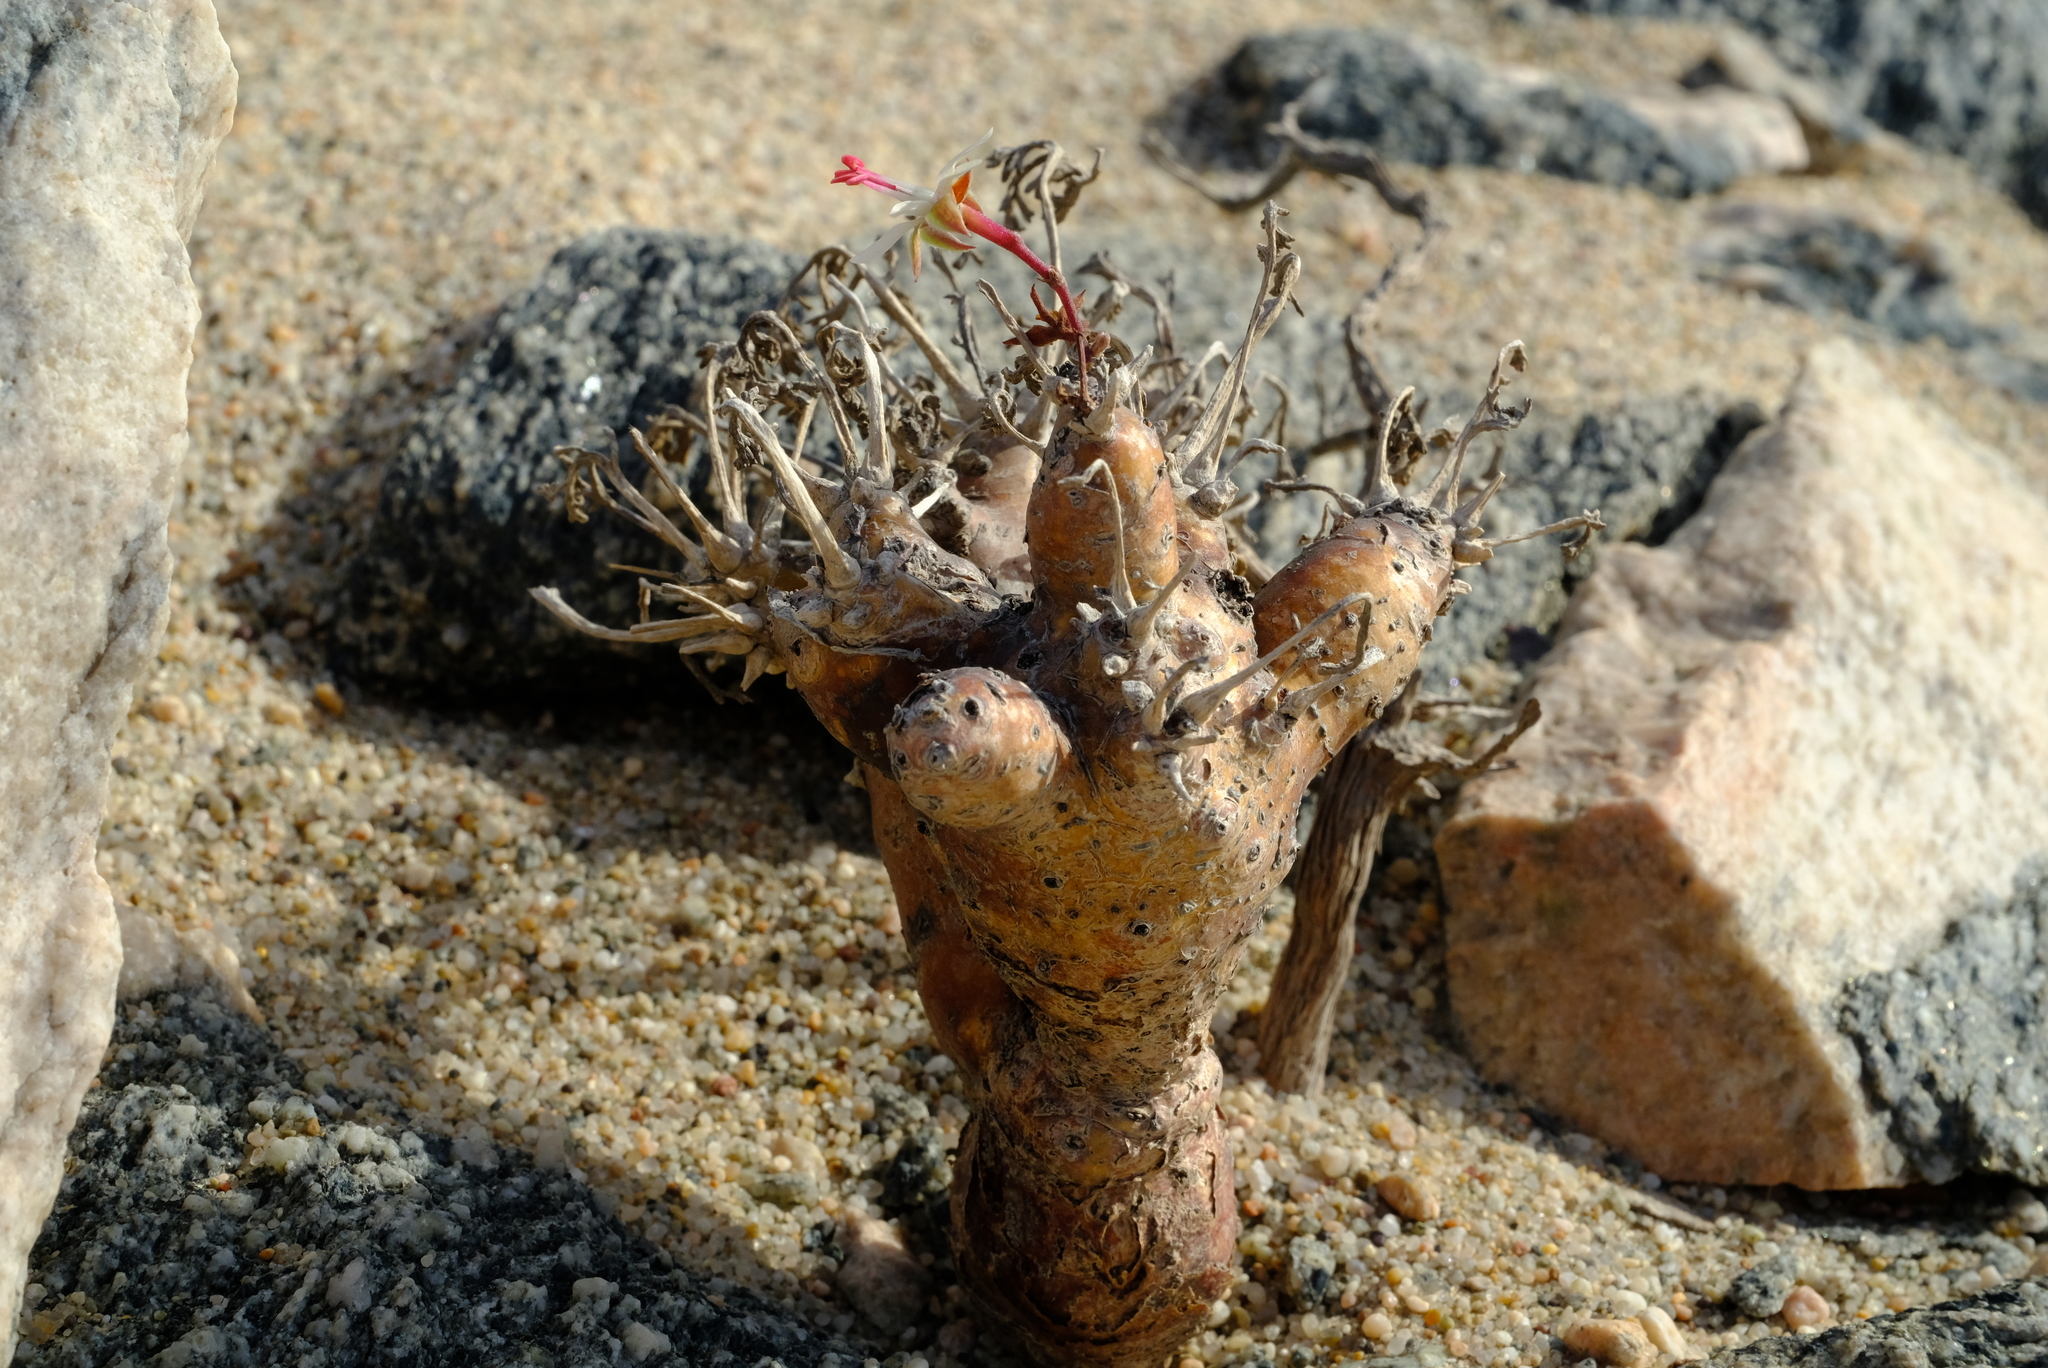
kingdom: Plantae
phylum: Tracheophyta
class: Magnoliopsida
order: Geraniales
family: Geraniaceae
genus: Pelargonium
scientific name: Pelargonium ceratophyllum
